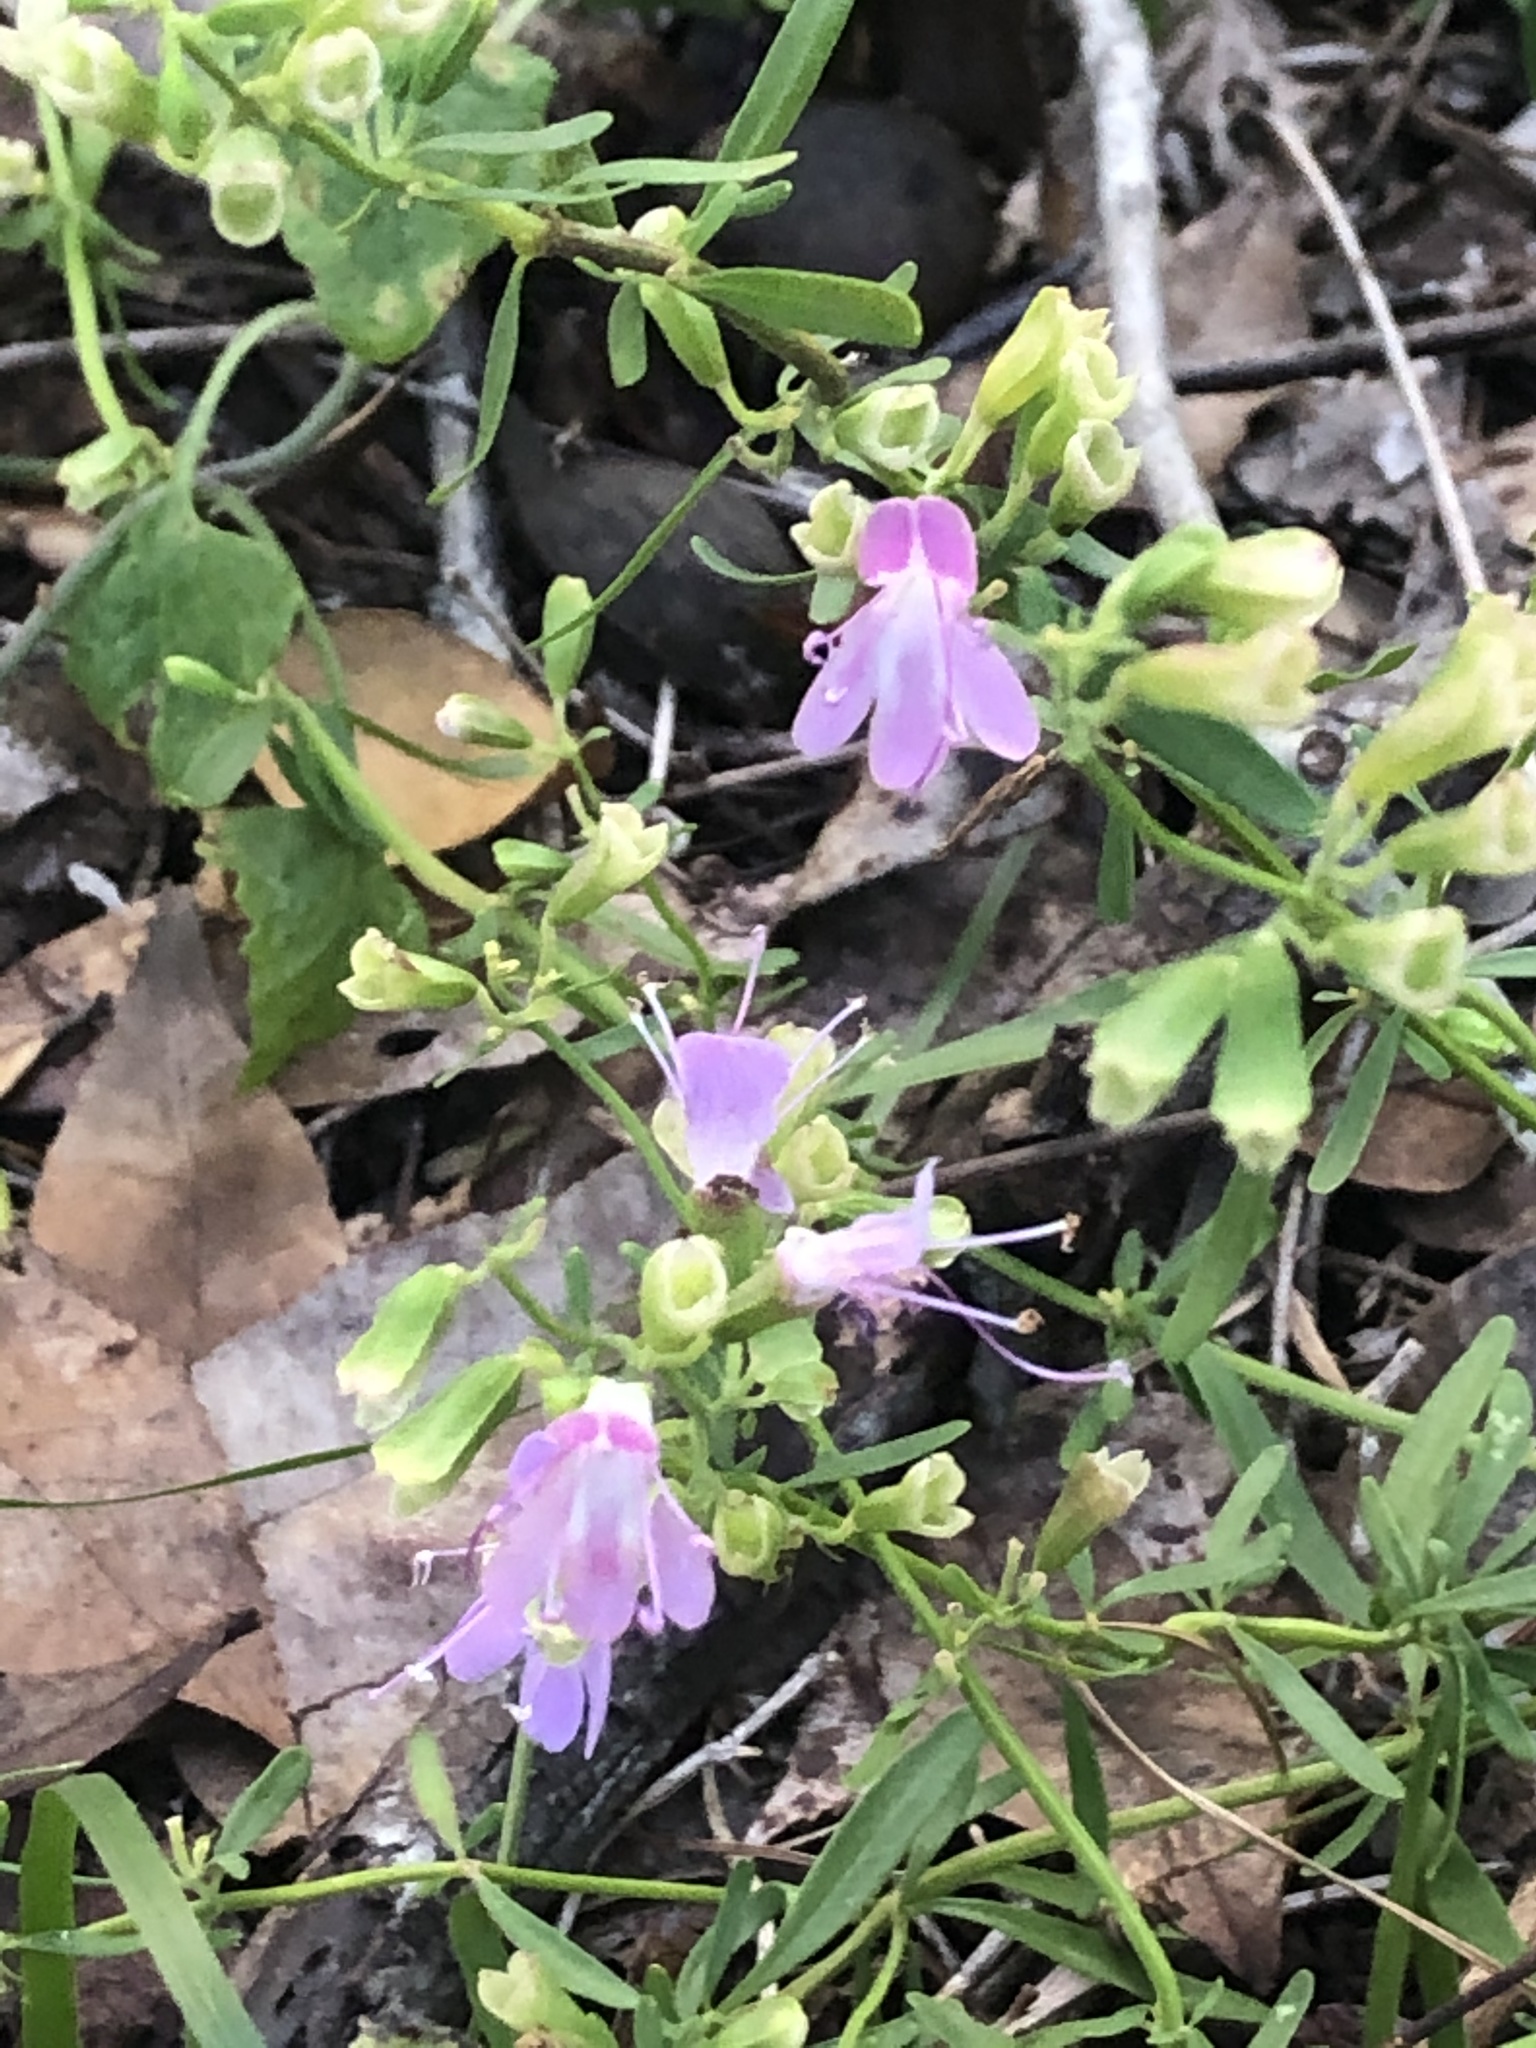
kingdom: Plantae
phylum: Tracheophyta
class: Magnoliopsida
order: Lamiales
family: Lamiaceae
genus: Dicerandra
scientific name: Dicerandra frutescens
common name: Scrub-mint
